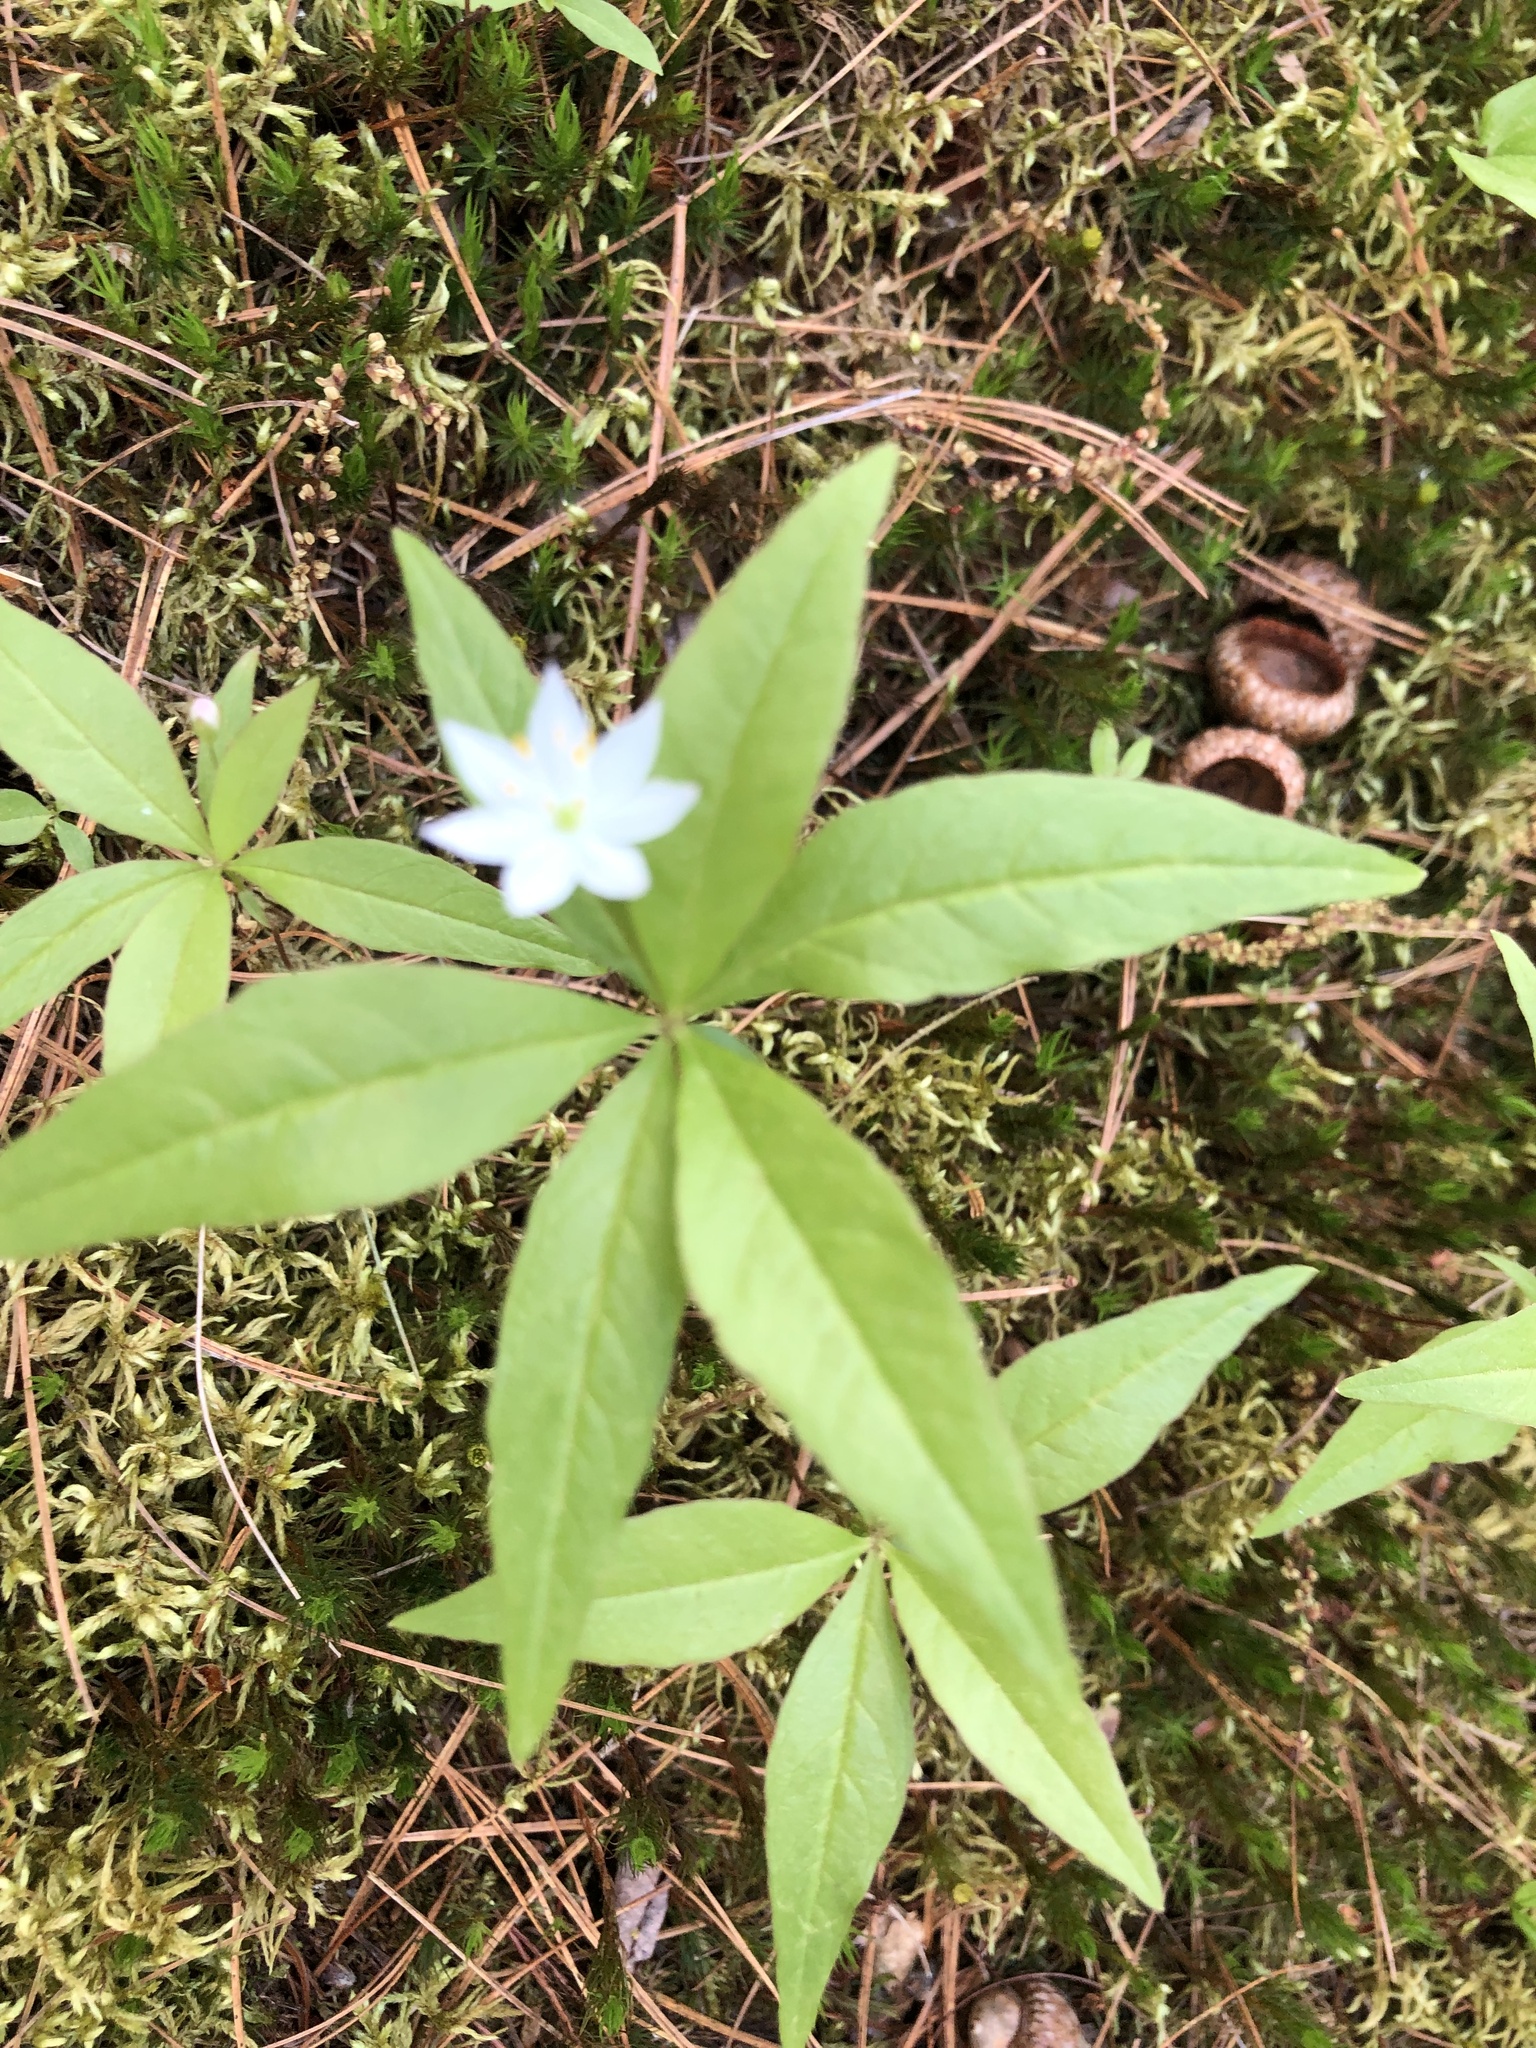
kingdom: Plantae
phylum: Tracheophyta
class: Magnoliopsida
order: Ericales
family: Primulaceae
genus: Lysimachia
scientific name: Lysimachia borealis
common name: American starflower
